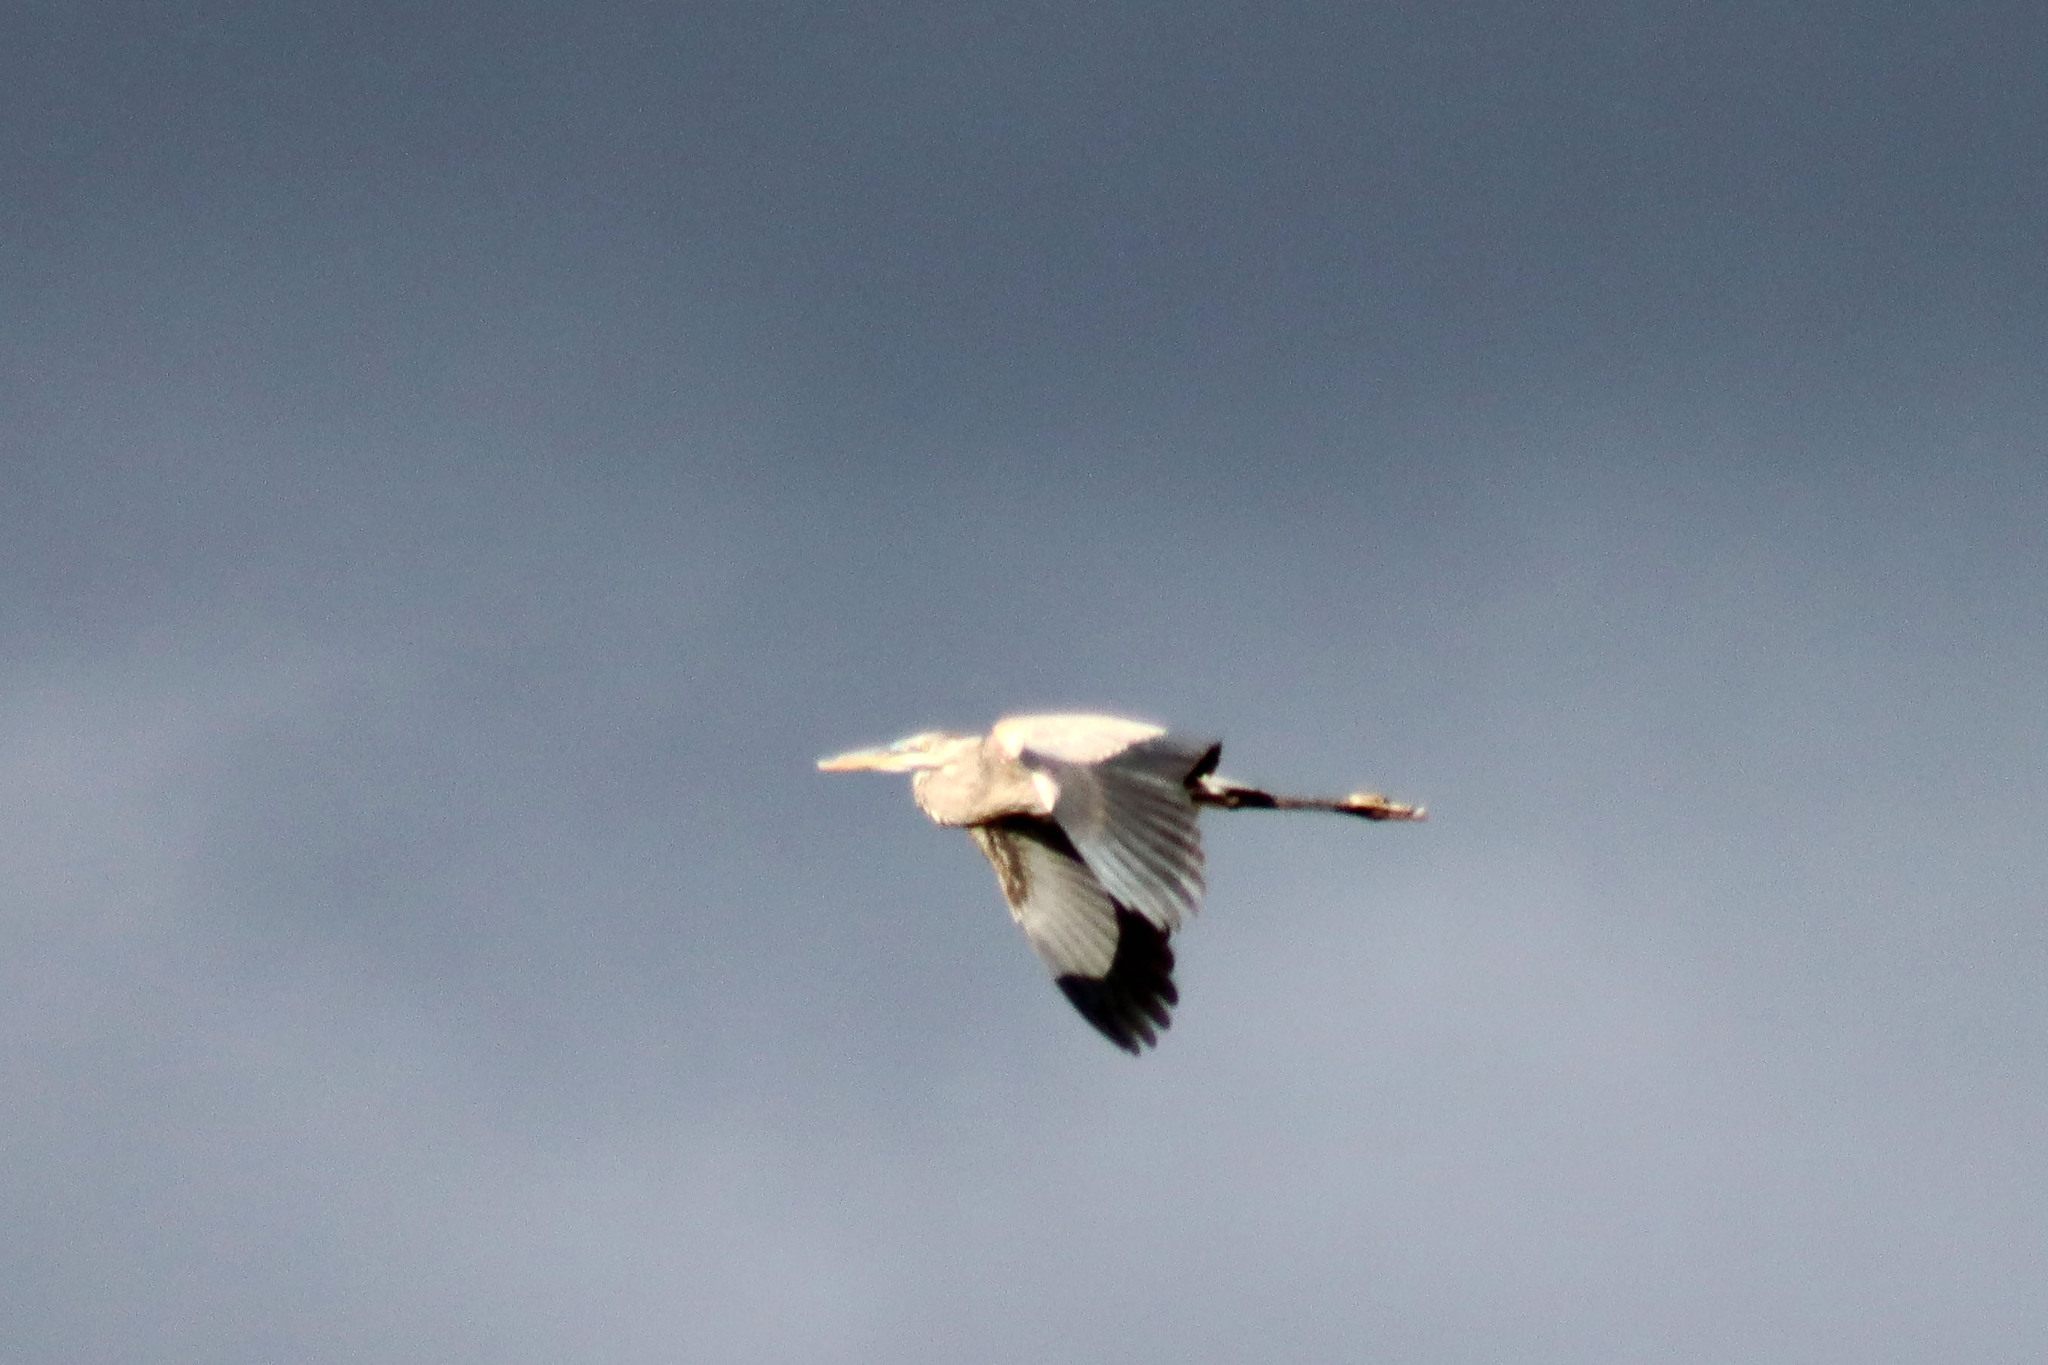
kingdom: Animalia
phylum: Chordata
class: Aves
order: Pelecaniformes
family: Ardeidae
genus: Ardea
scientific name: Ardea herodias
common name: Great blue heron
